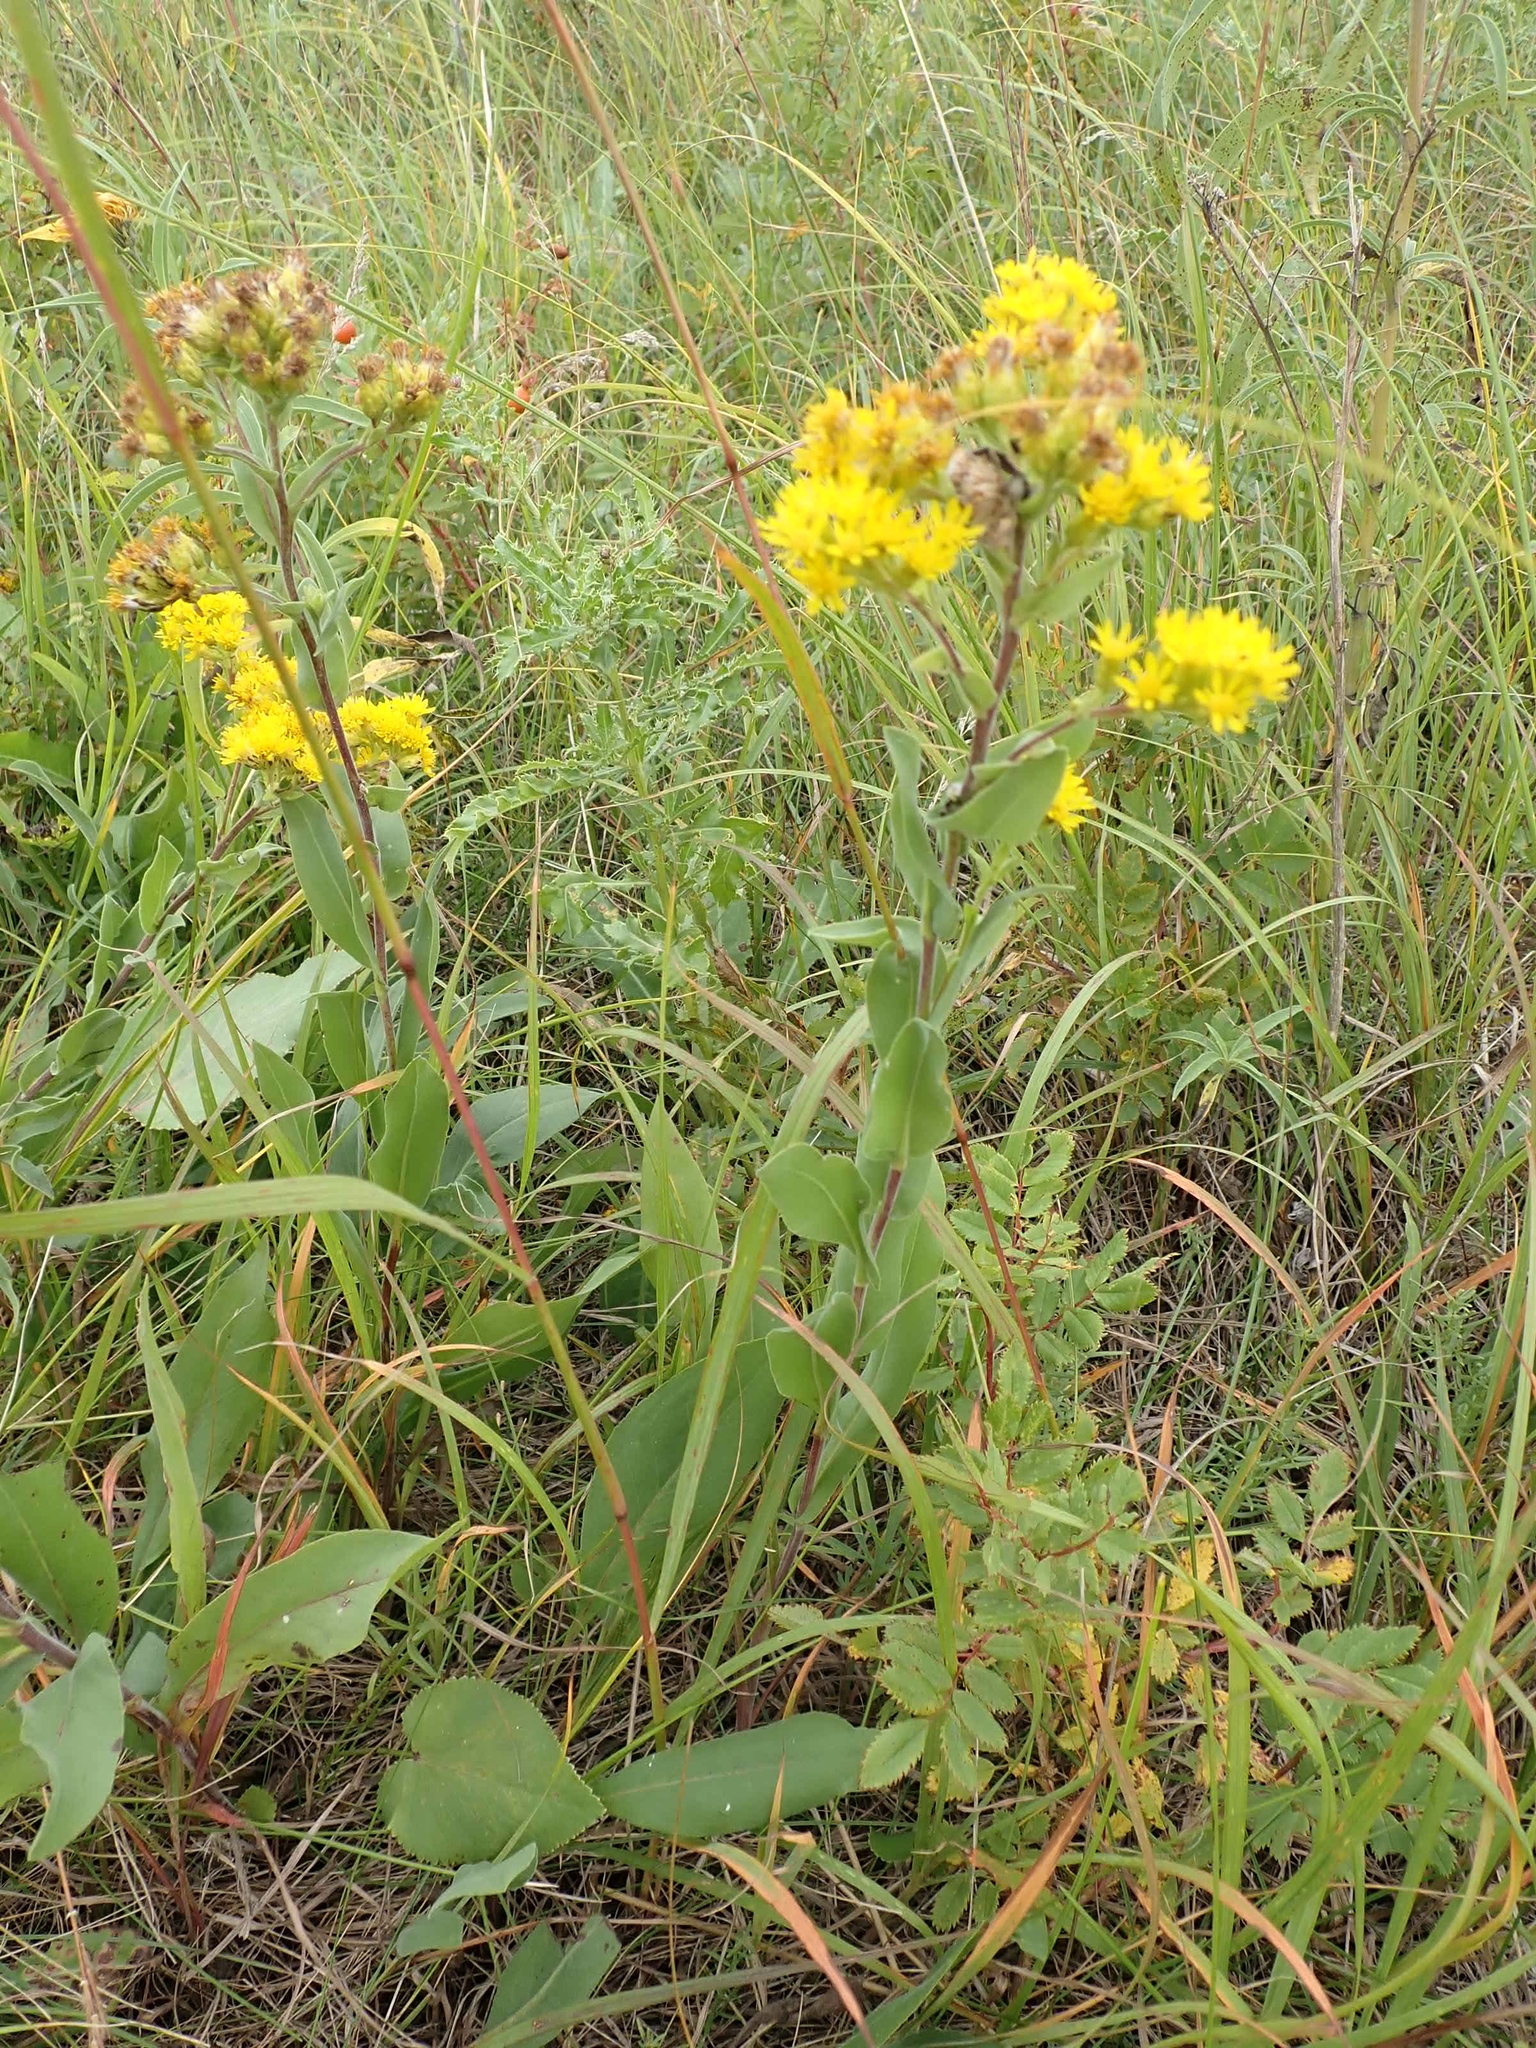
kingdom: Plantae
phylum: Tracheophyta
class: Magnoliopsida
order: Asterales
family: Asteraceae
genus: Solidago
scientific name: Solidago rigida
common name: Rigid goldenrod
